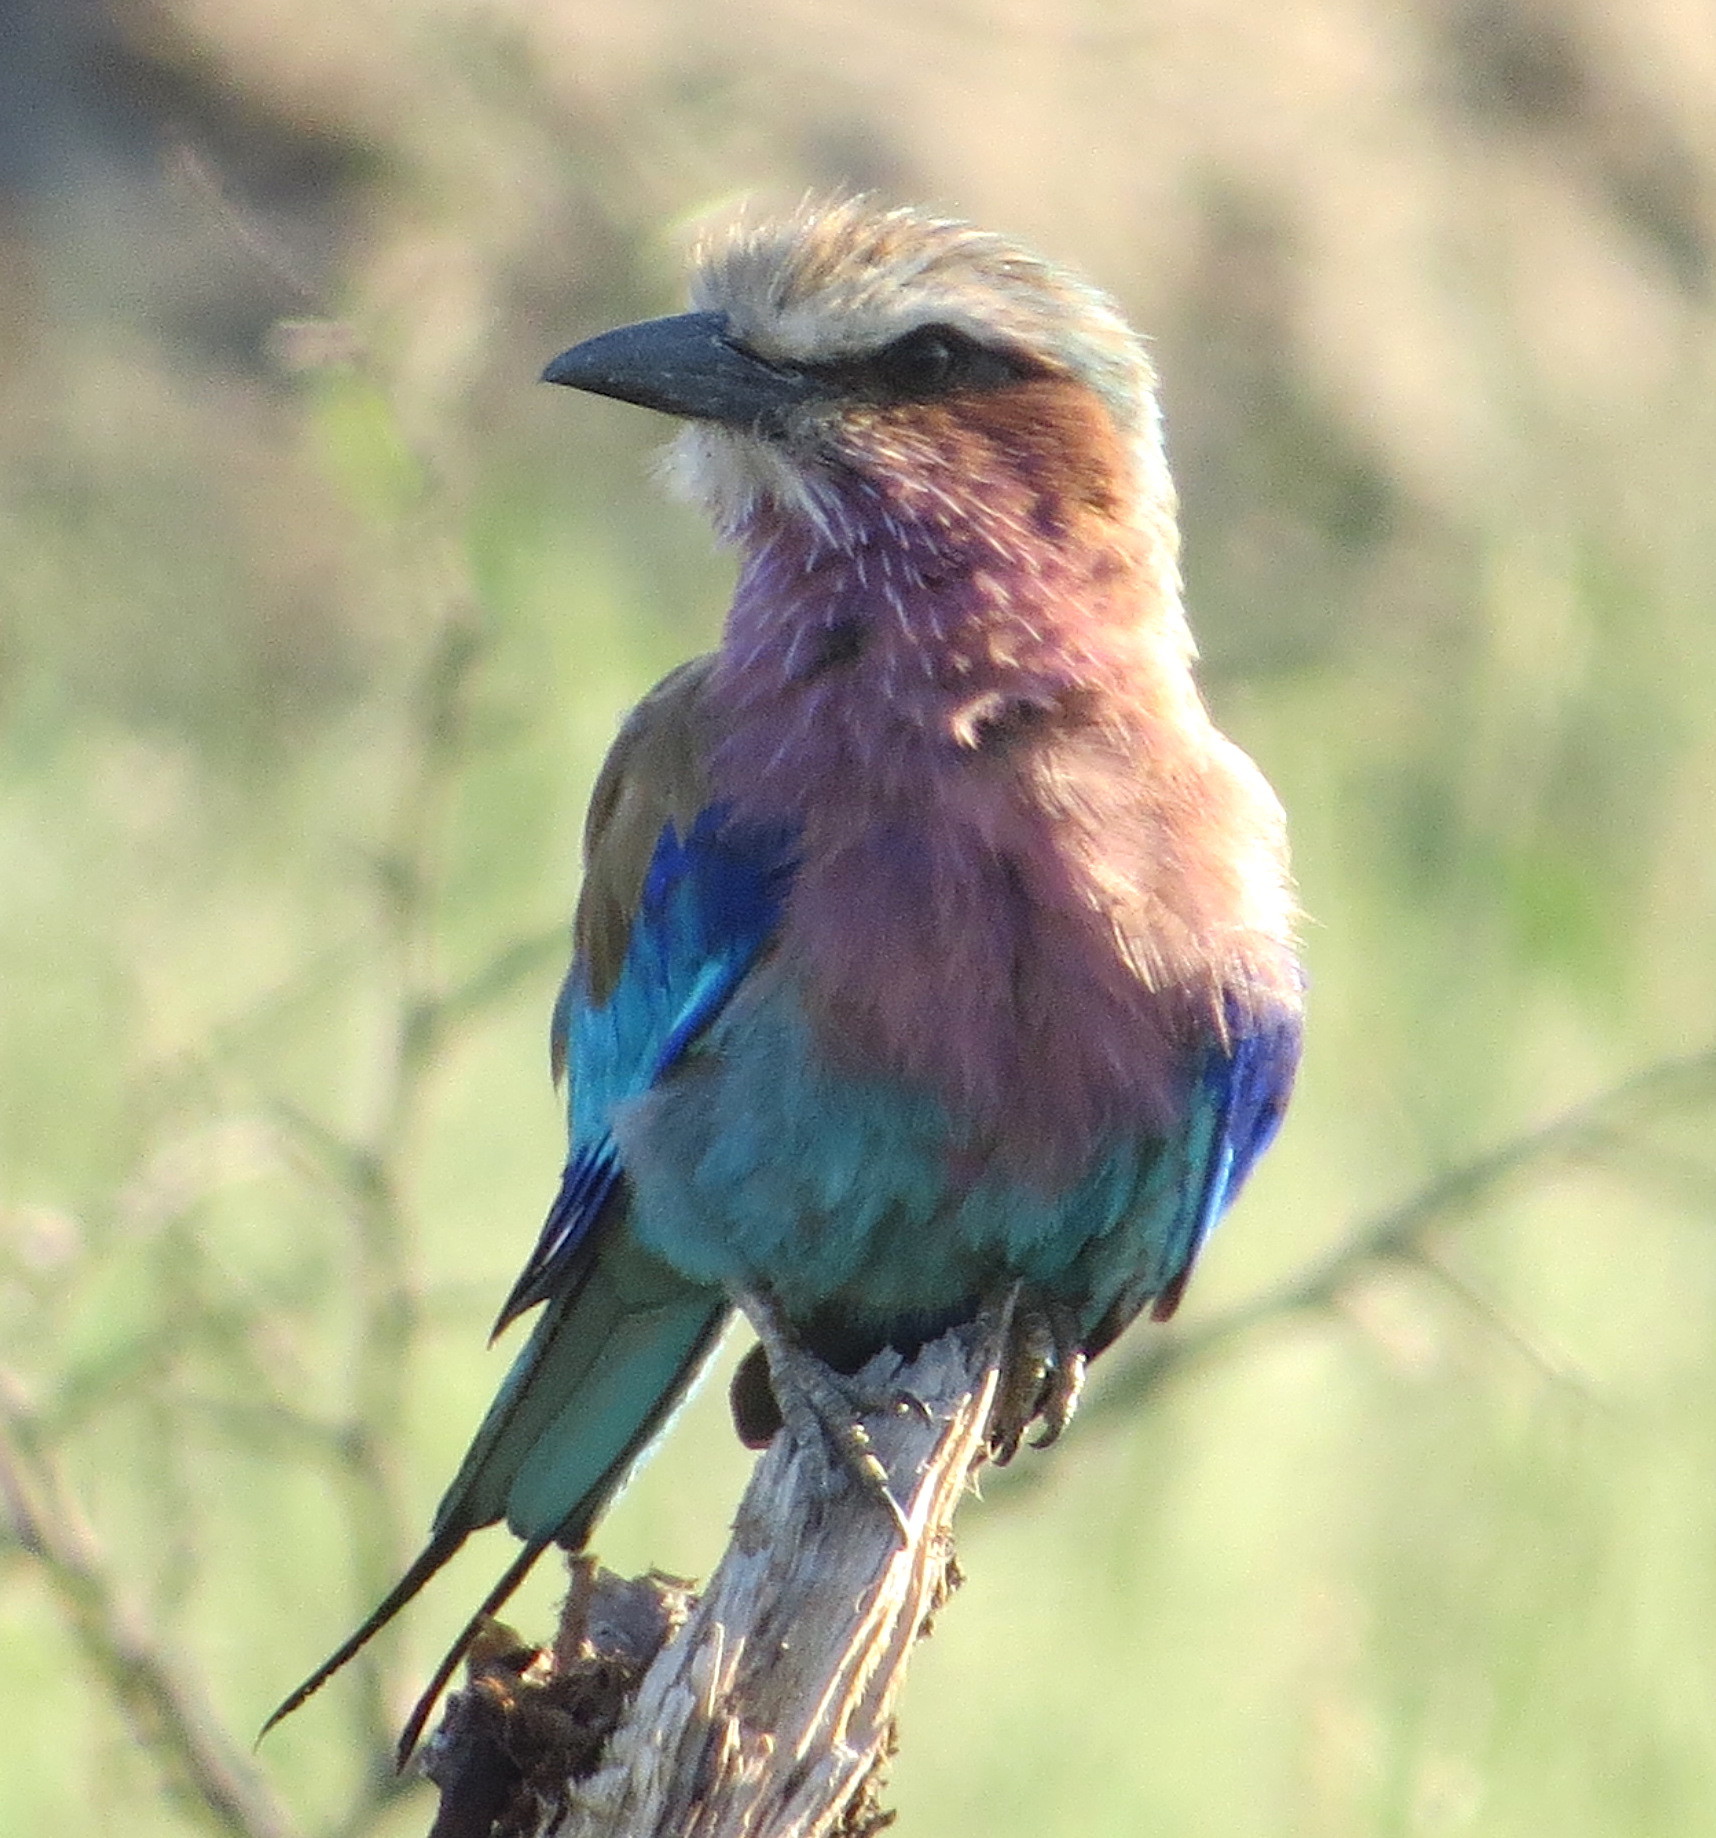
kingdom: Animalia
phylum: Chordata
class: Aves
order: Coraciiformes
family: Coraciidae
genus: Coracias
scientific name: Coracias caudatus
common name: Lilac-breasted roller
